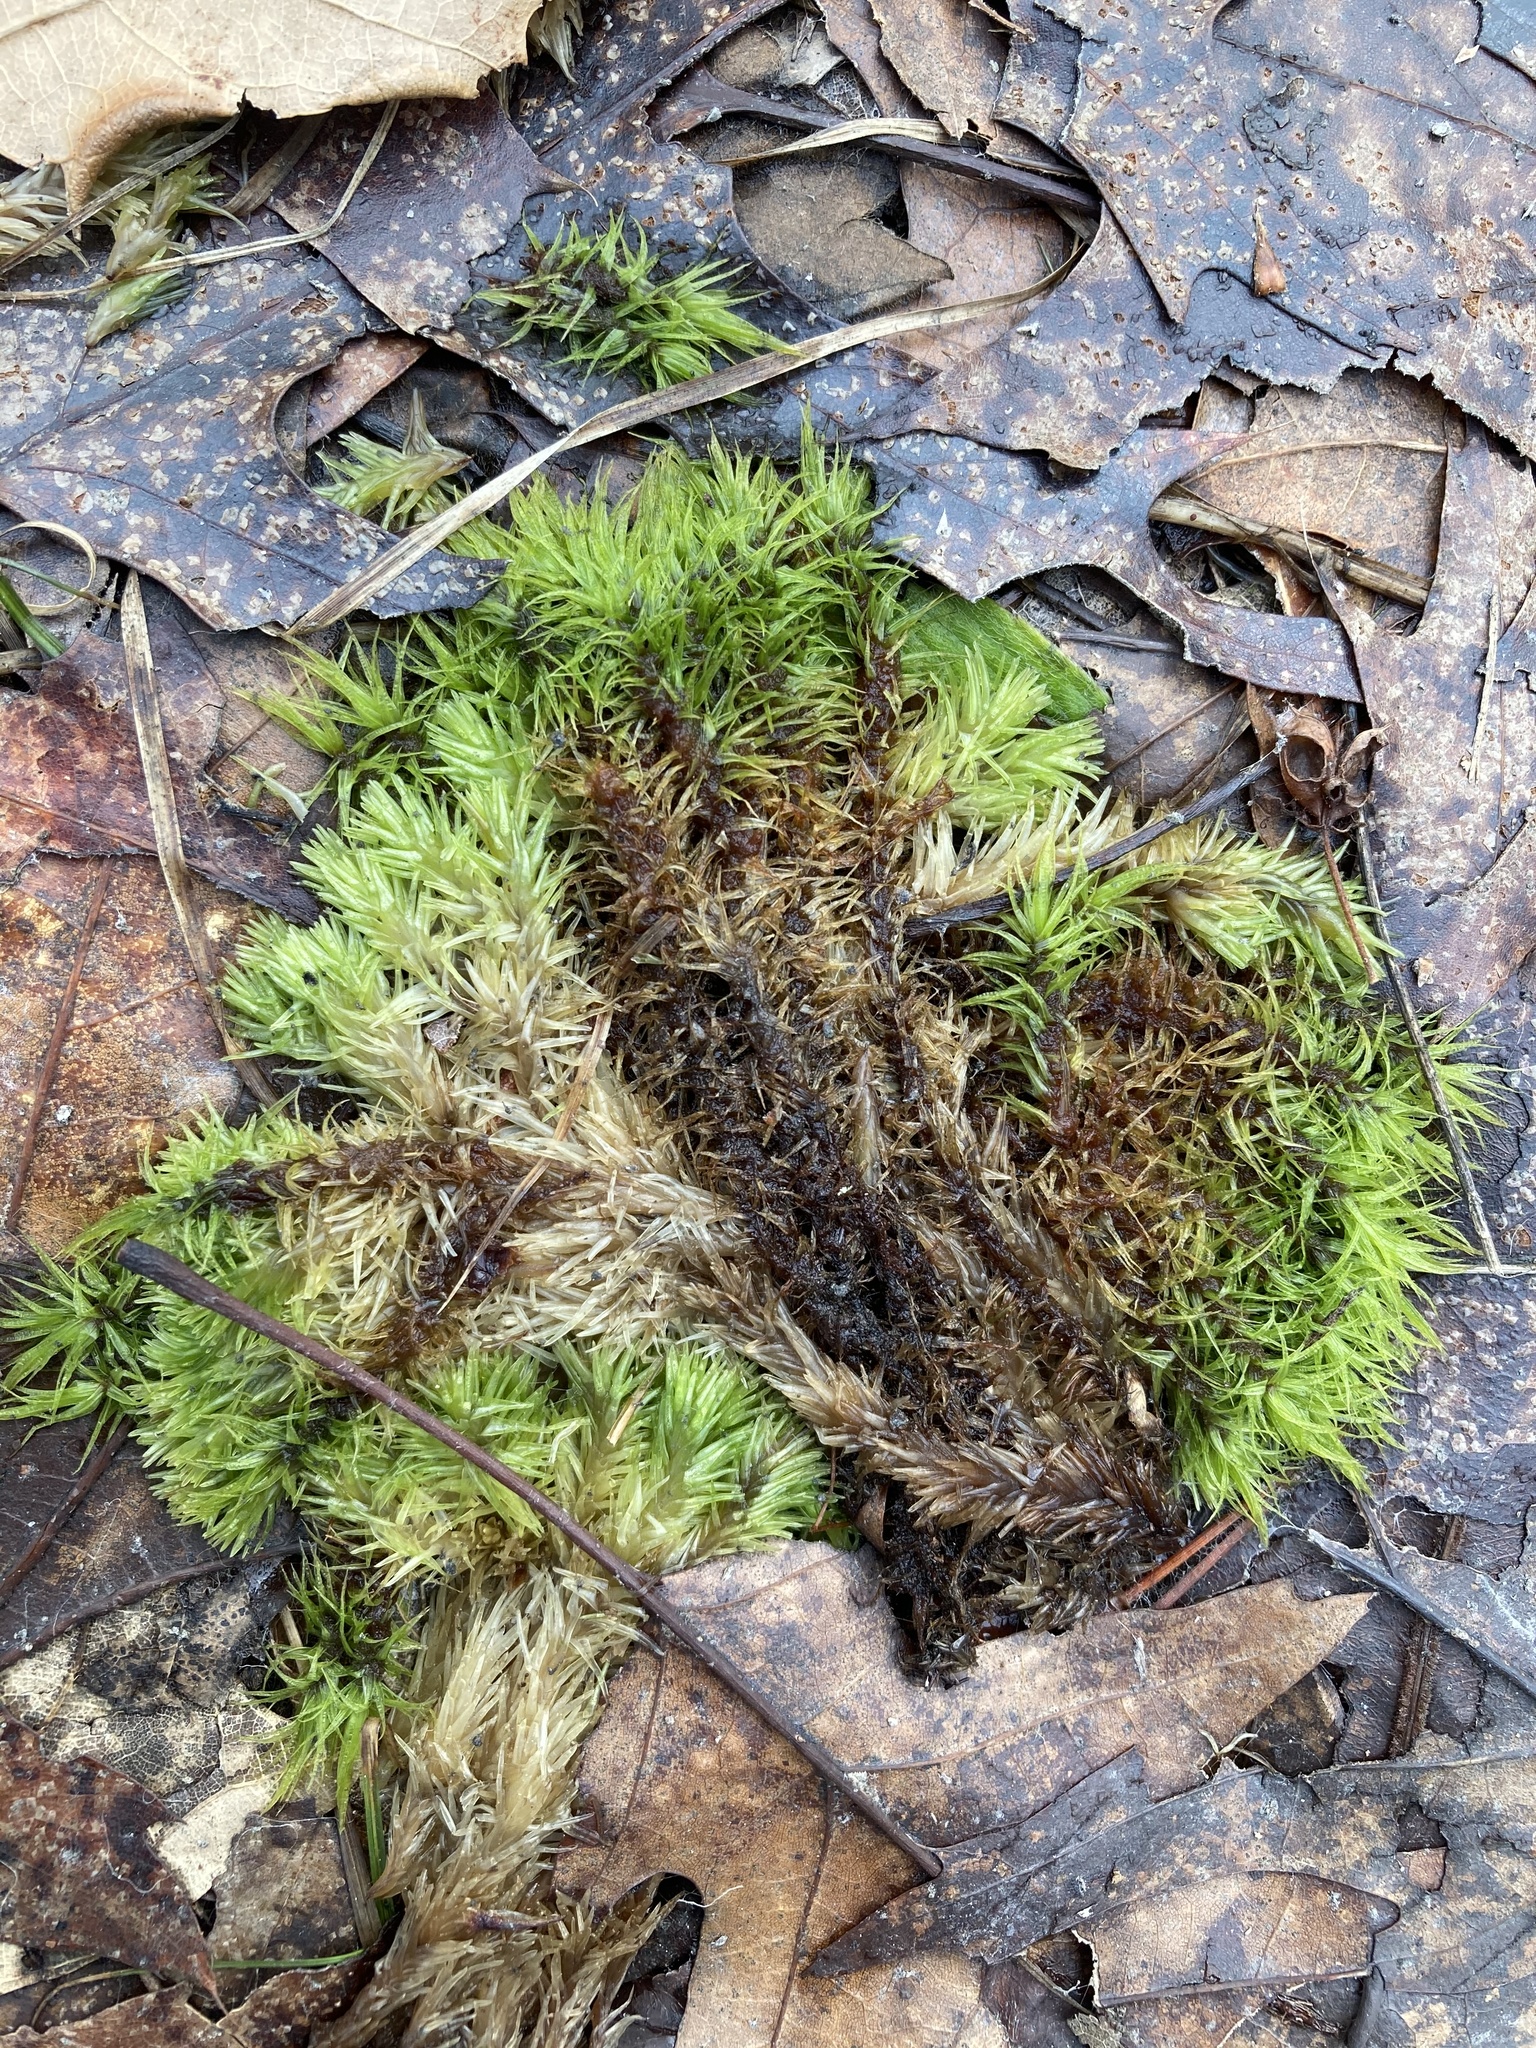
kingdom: Plantae
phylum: Bryophyta
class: Bryopsida
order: Dicranales
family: Dicranaceae
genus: Dicranum
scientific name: Dicranum polysetum
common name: Rugose fork-moss
